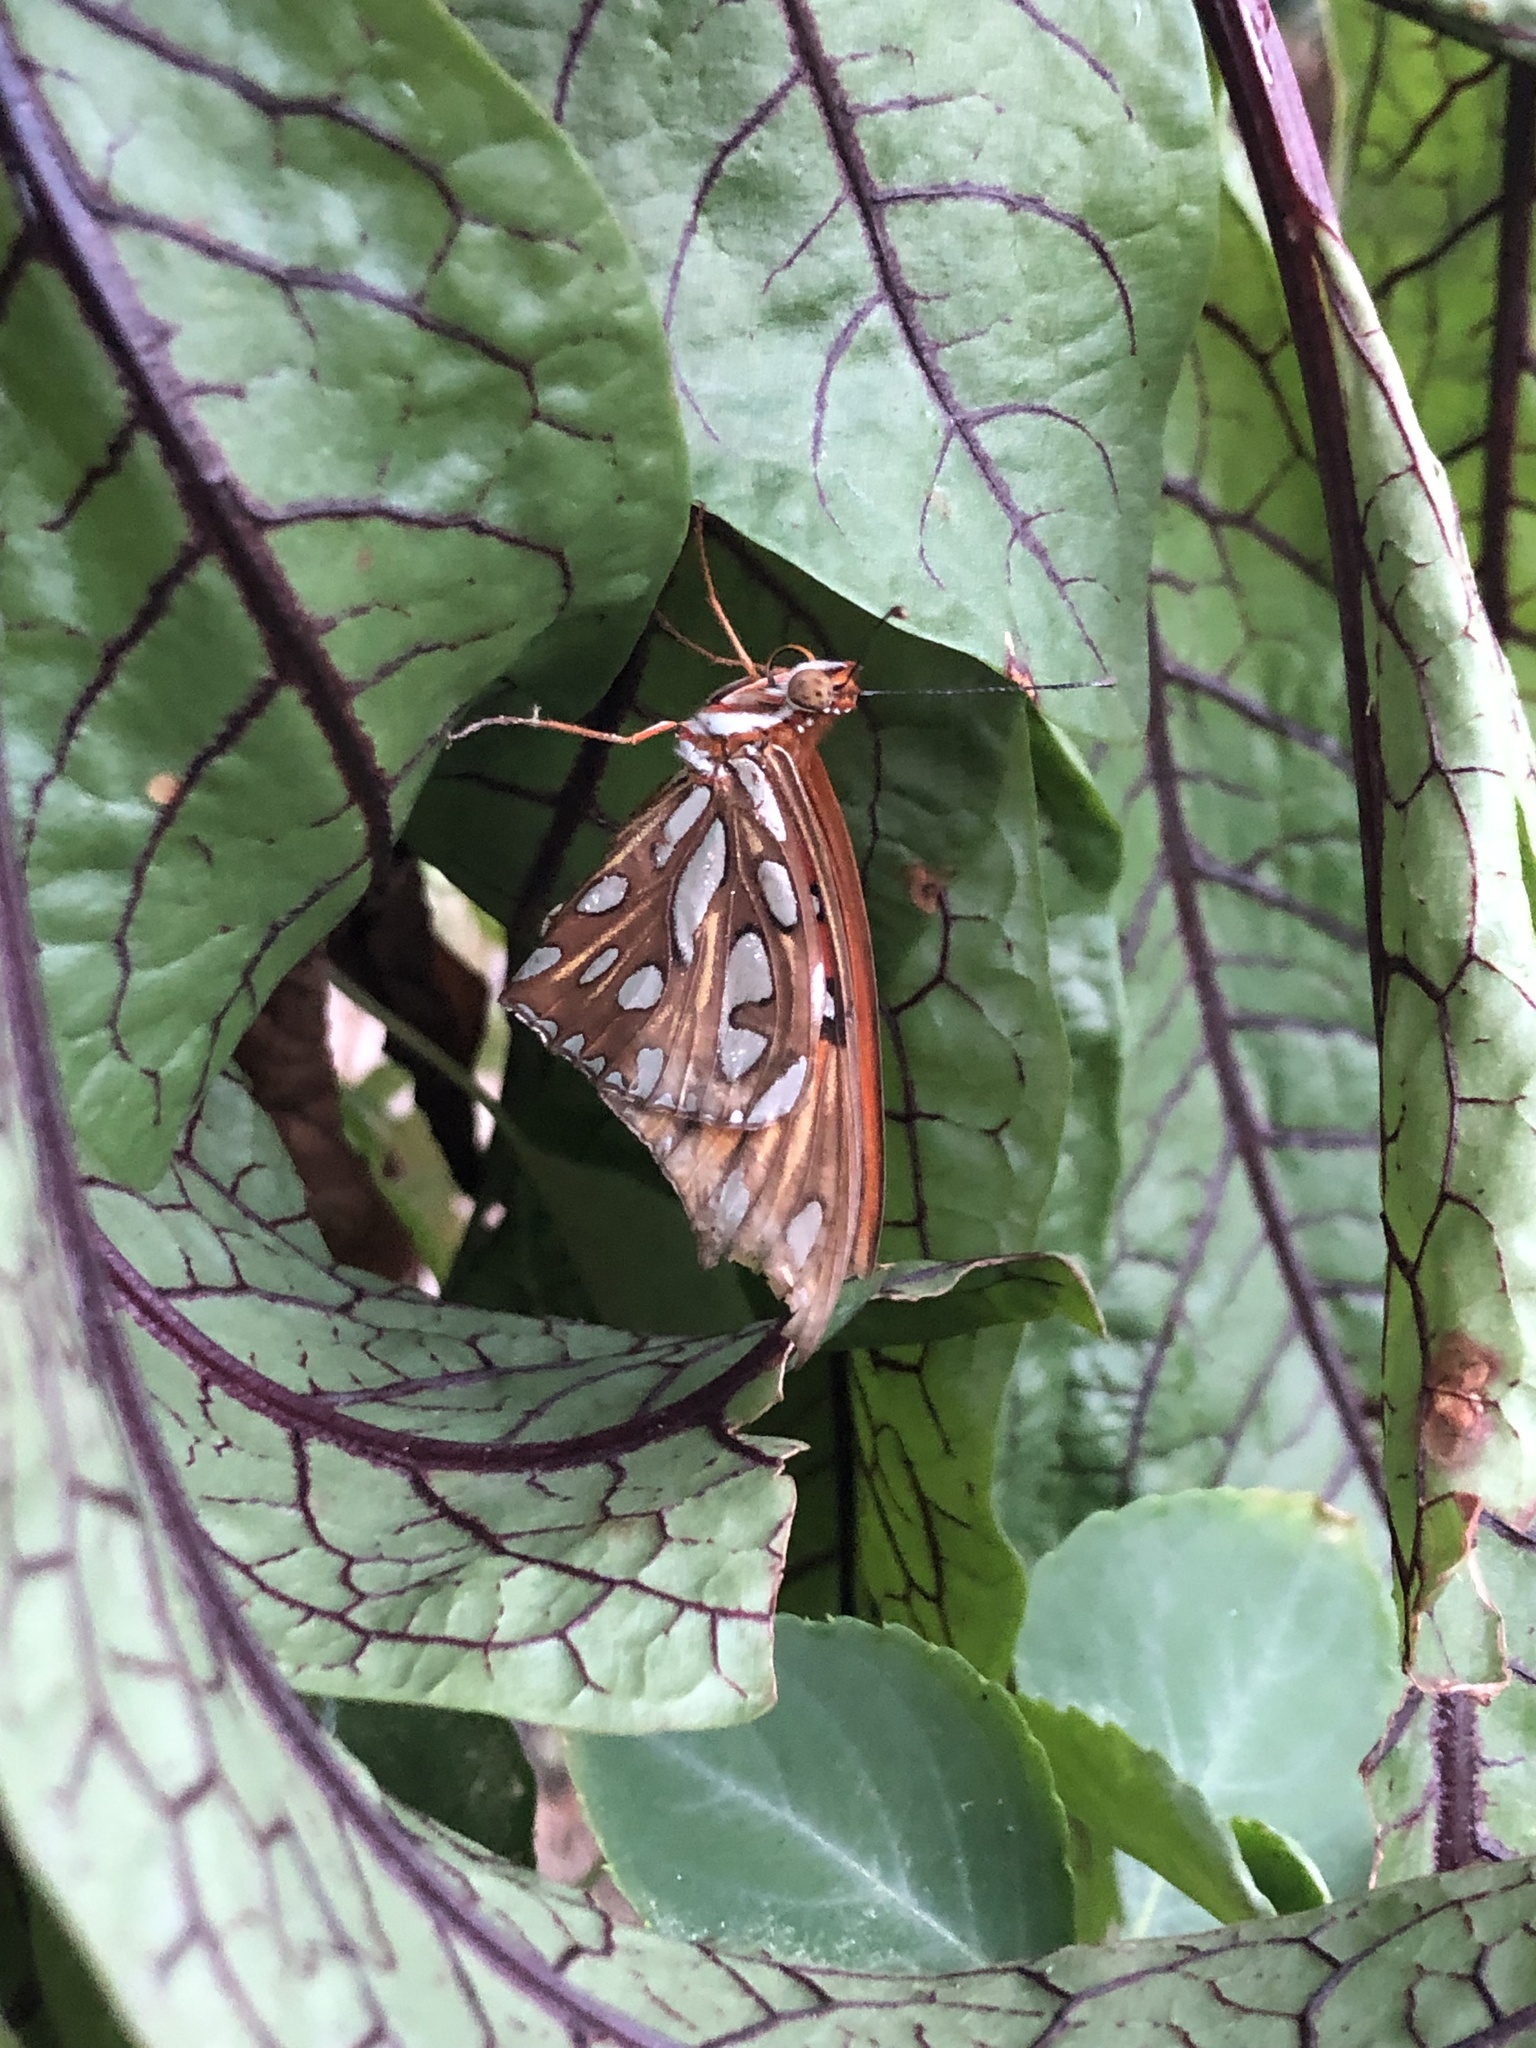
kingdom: Animalia
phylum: Arthropoda
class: Insecta
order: Lepidoptera
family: Nymphalidae
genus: Dione
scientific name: Dione vanillae
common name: Gulf fritillary
